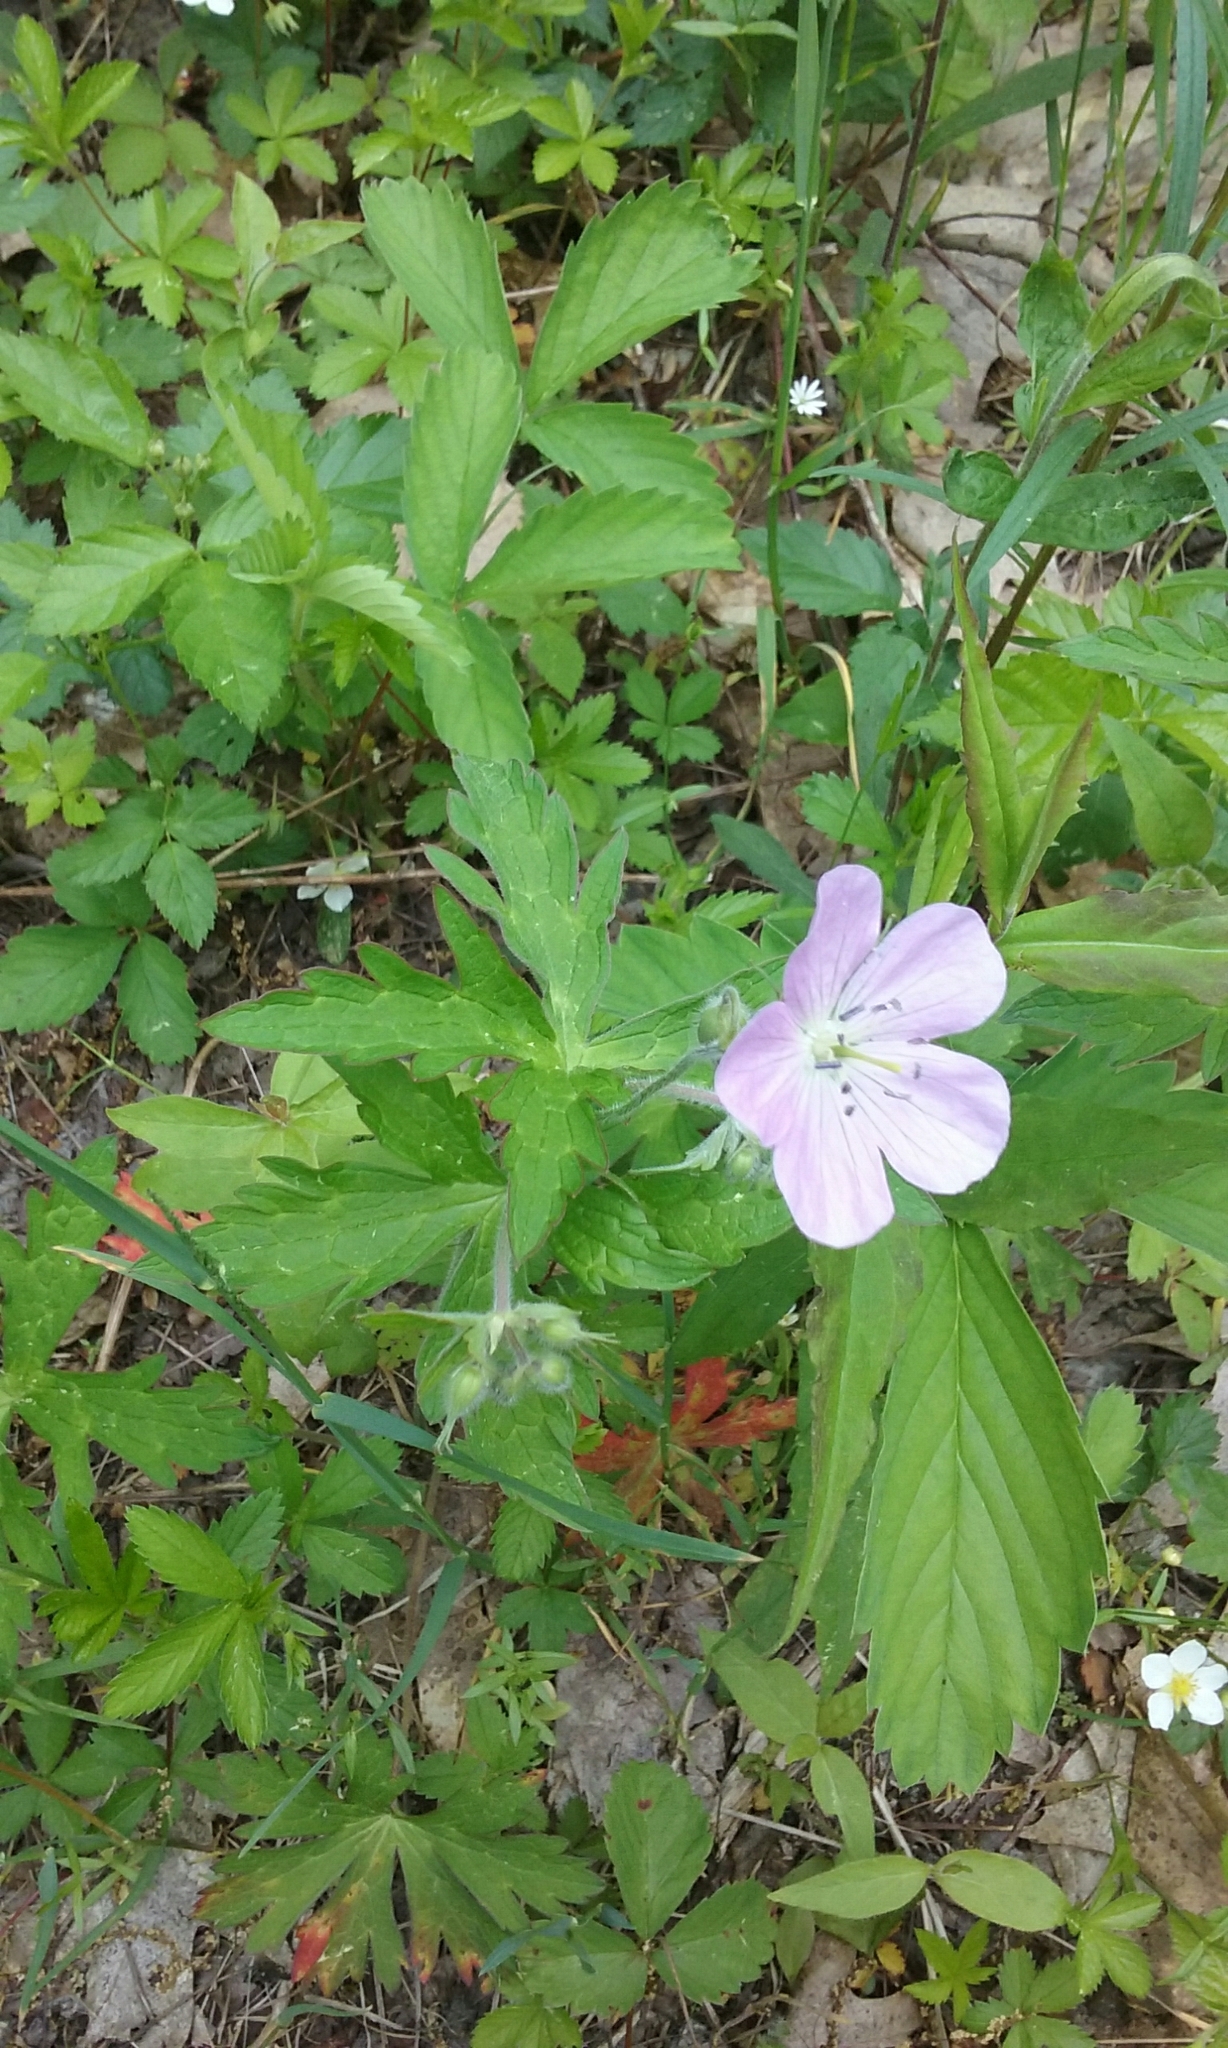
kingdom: Plantae
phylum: Tracheophyta
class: Magnoliopsida
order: Geraniales
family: Geraniaceae
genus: Geranium
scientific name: Geranium maculatum
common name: Spotted geranium
